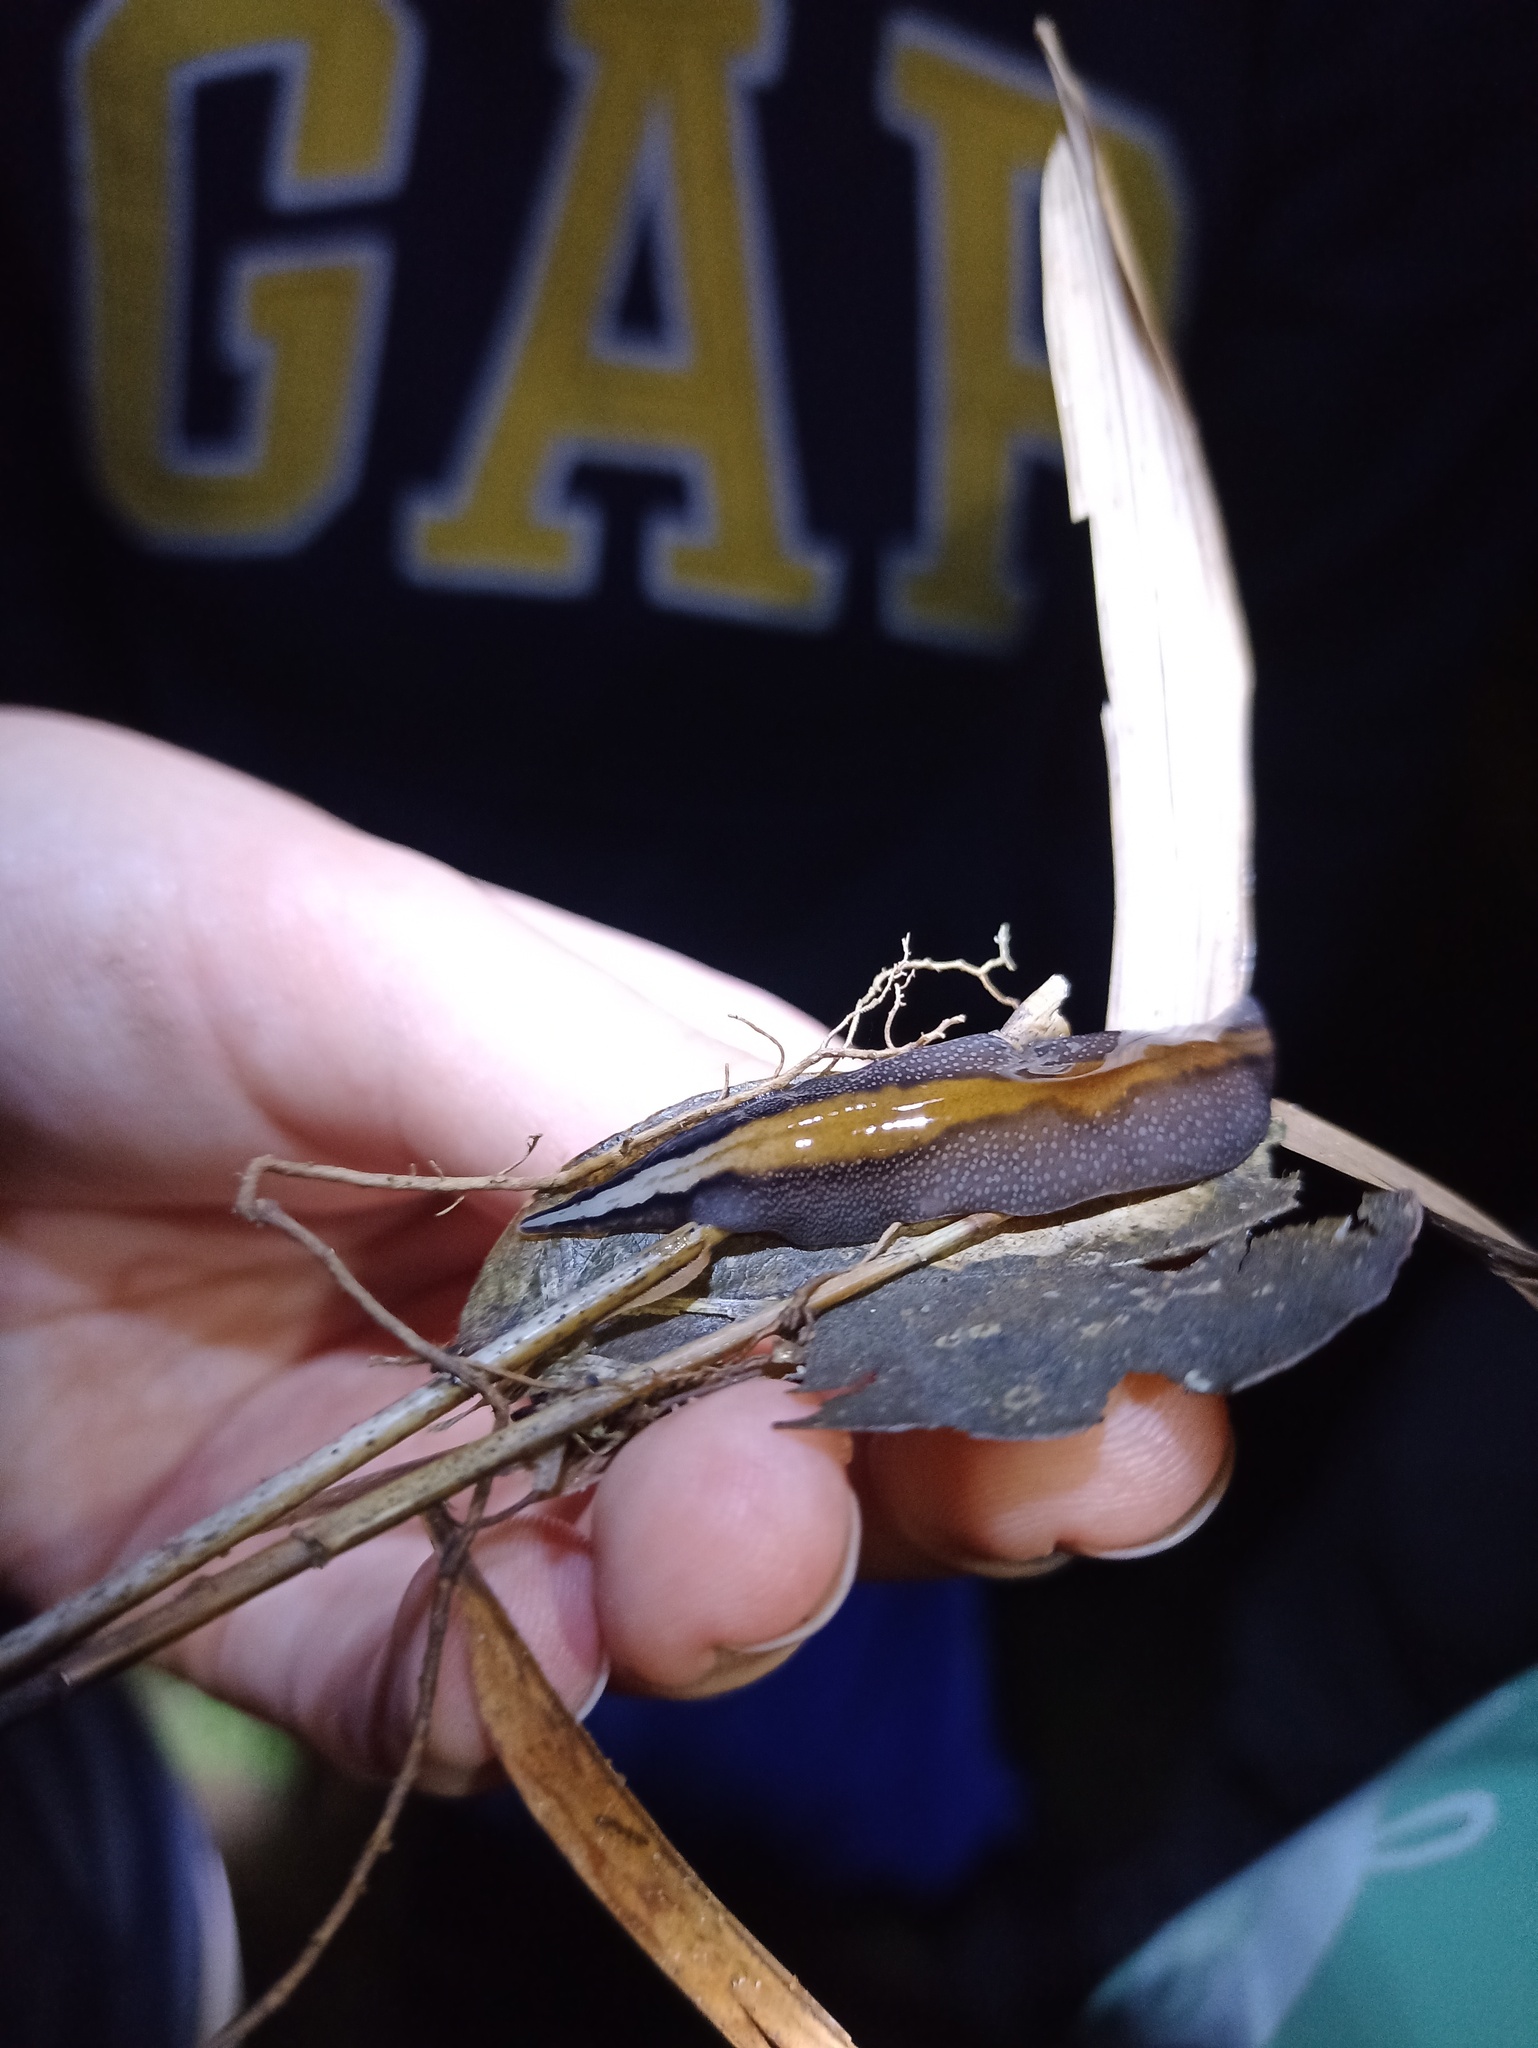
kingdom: Animalia
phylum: Platyhelminthes
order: Tricladida
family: Geoplanidae
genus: Obama
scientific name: Obama burmeisteri
